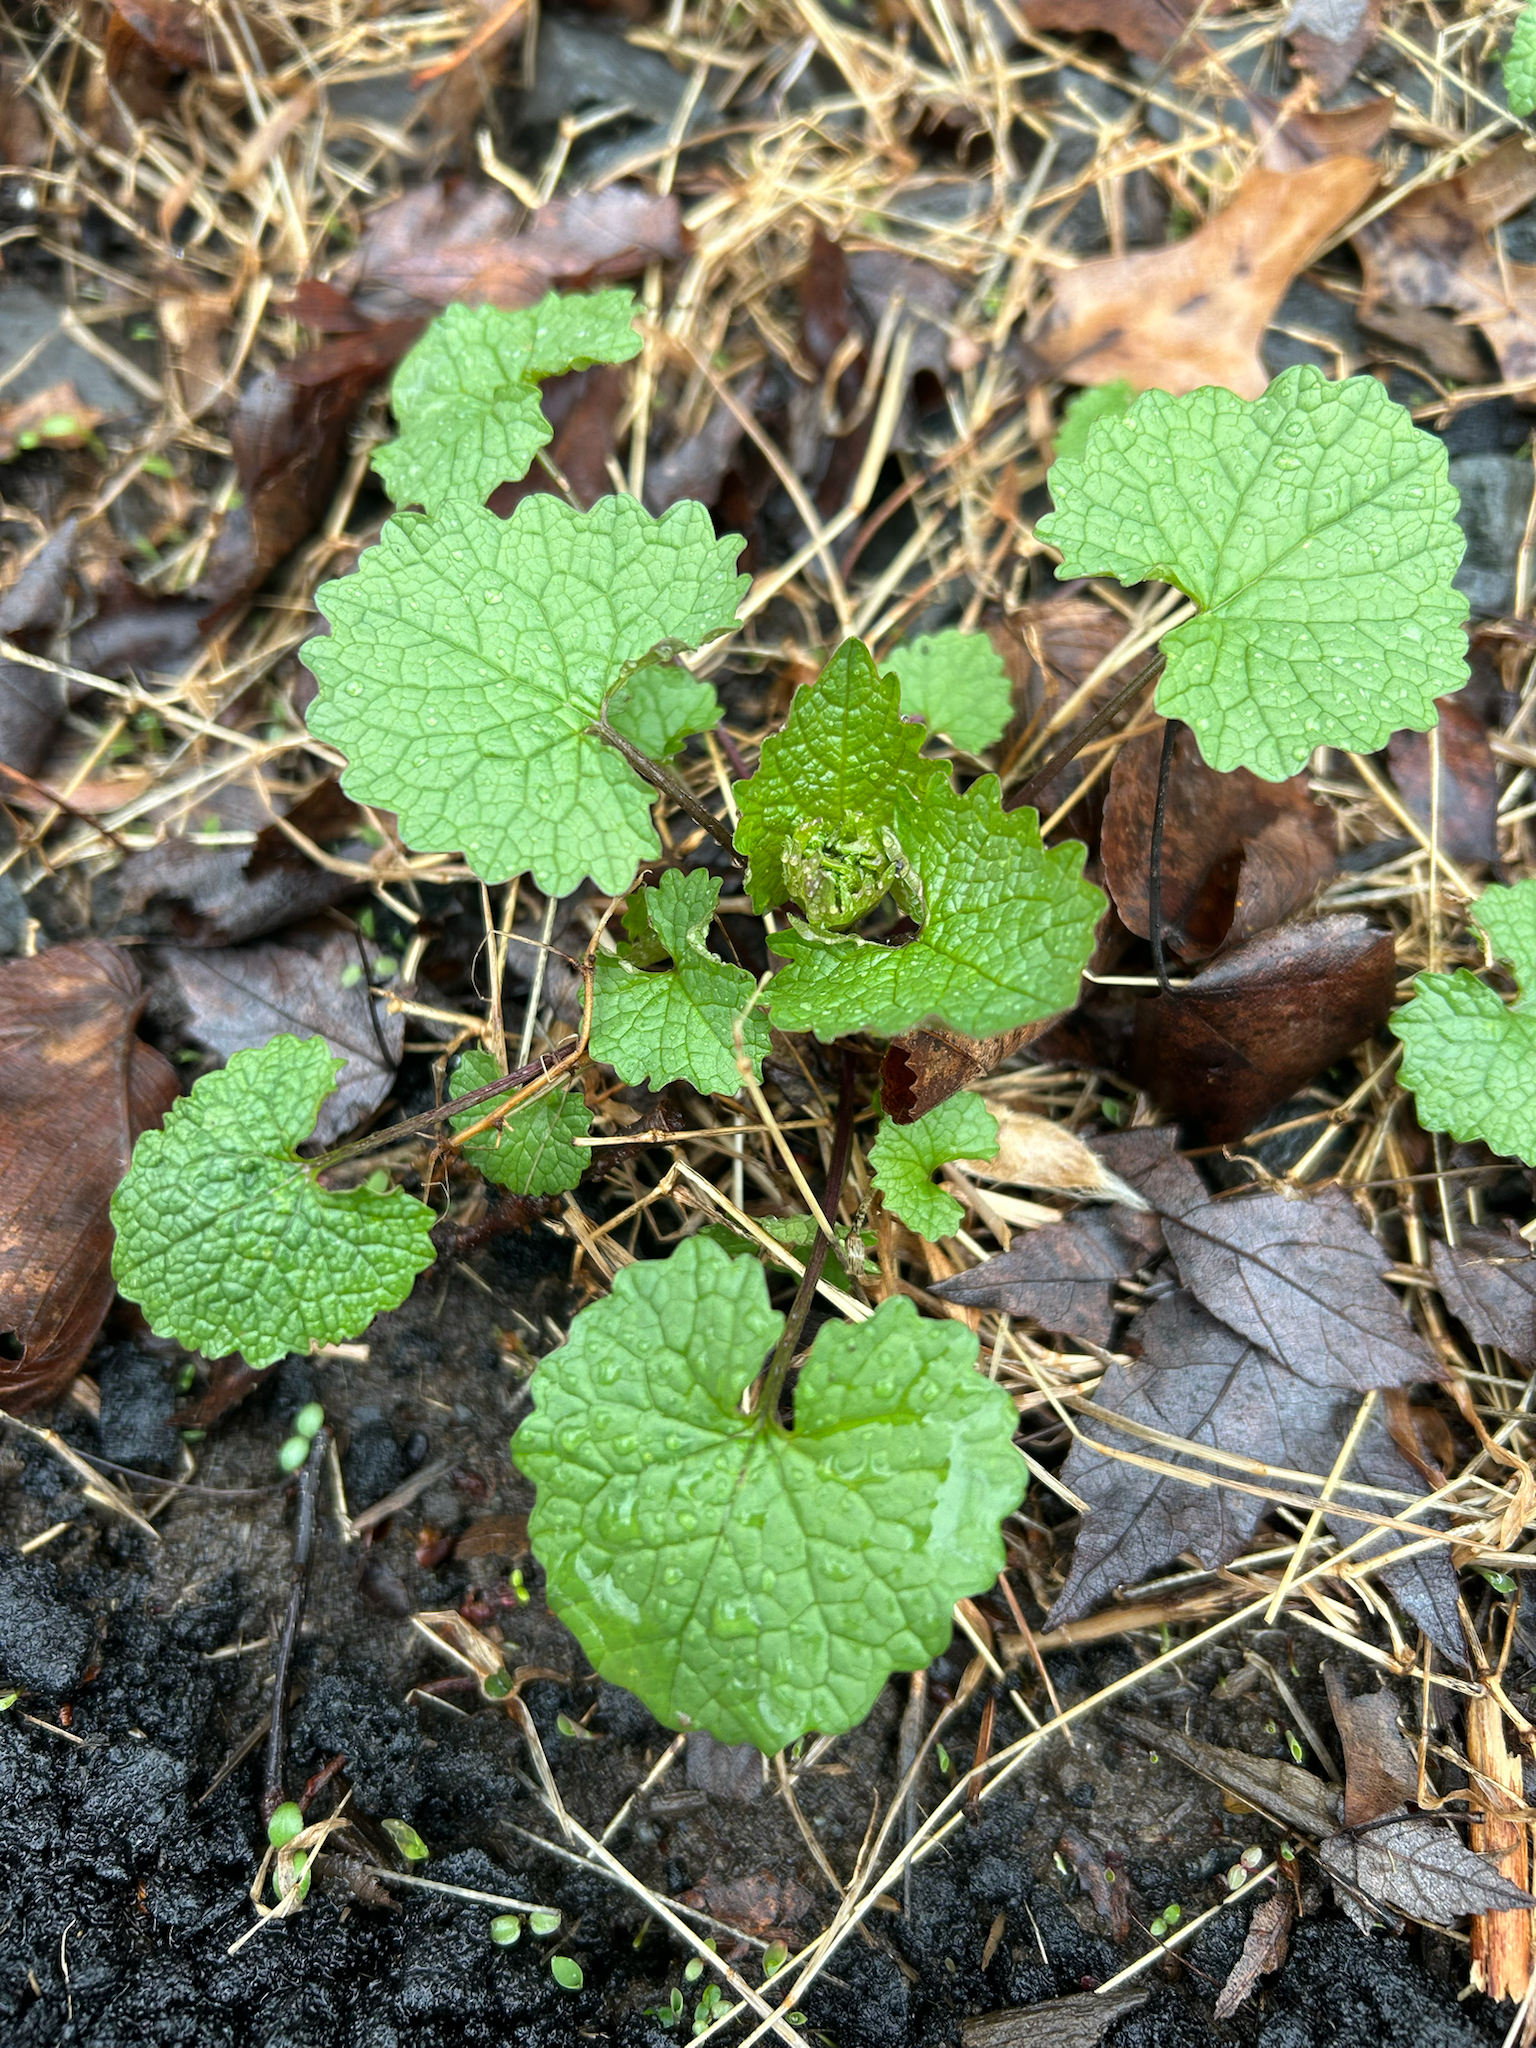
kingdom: Plantae
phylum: Tracheophyta
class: Magnoliopsida
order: Brassicales
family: Brassicaceae
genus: Alliaria
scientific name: Alliaria petiolata
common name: Garlic mustard
